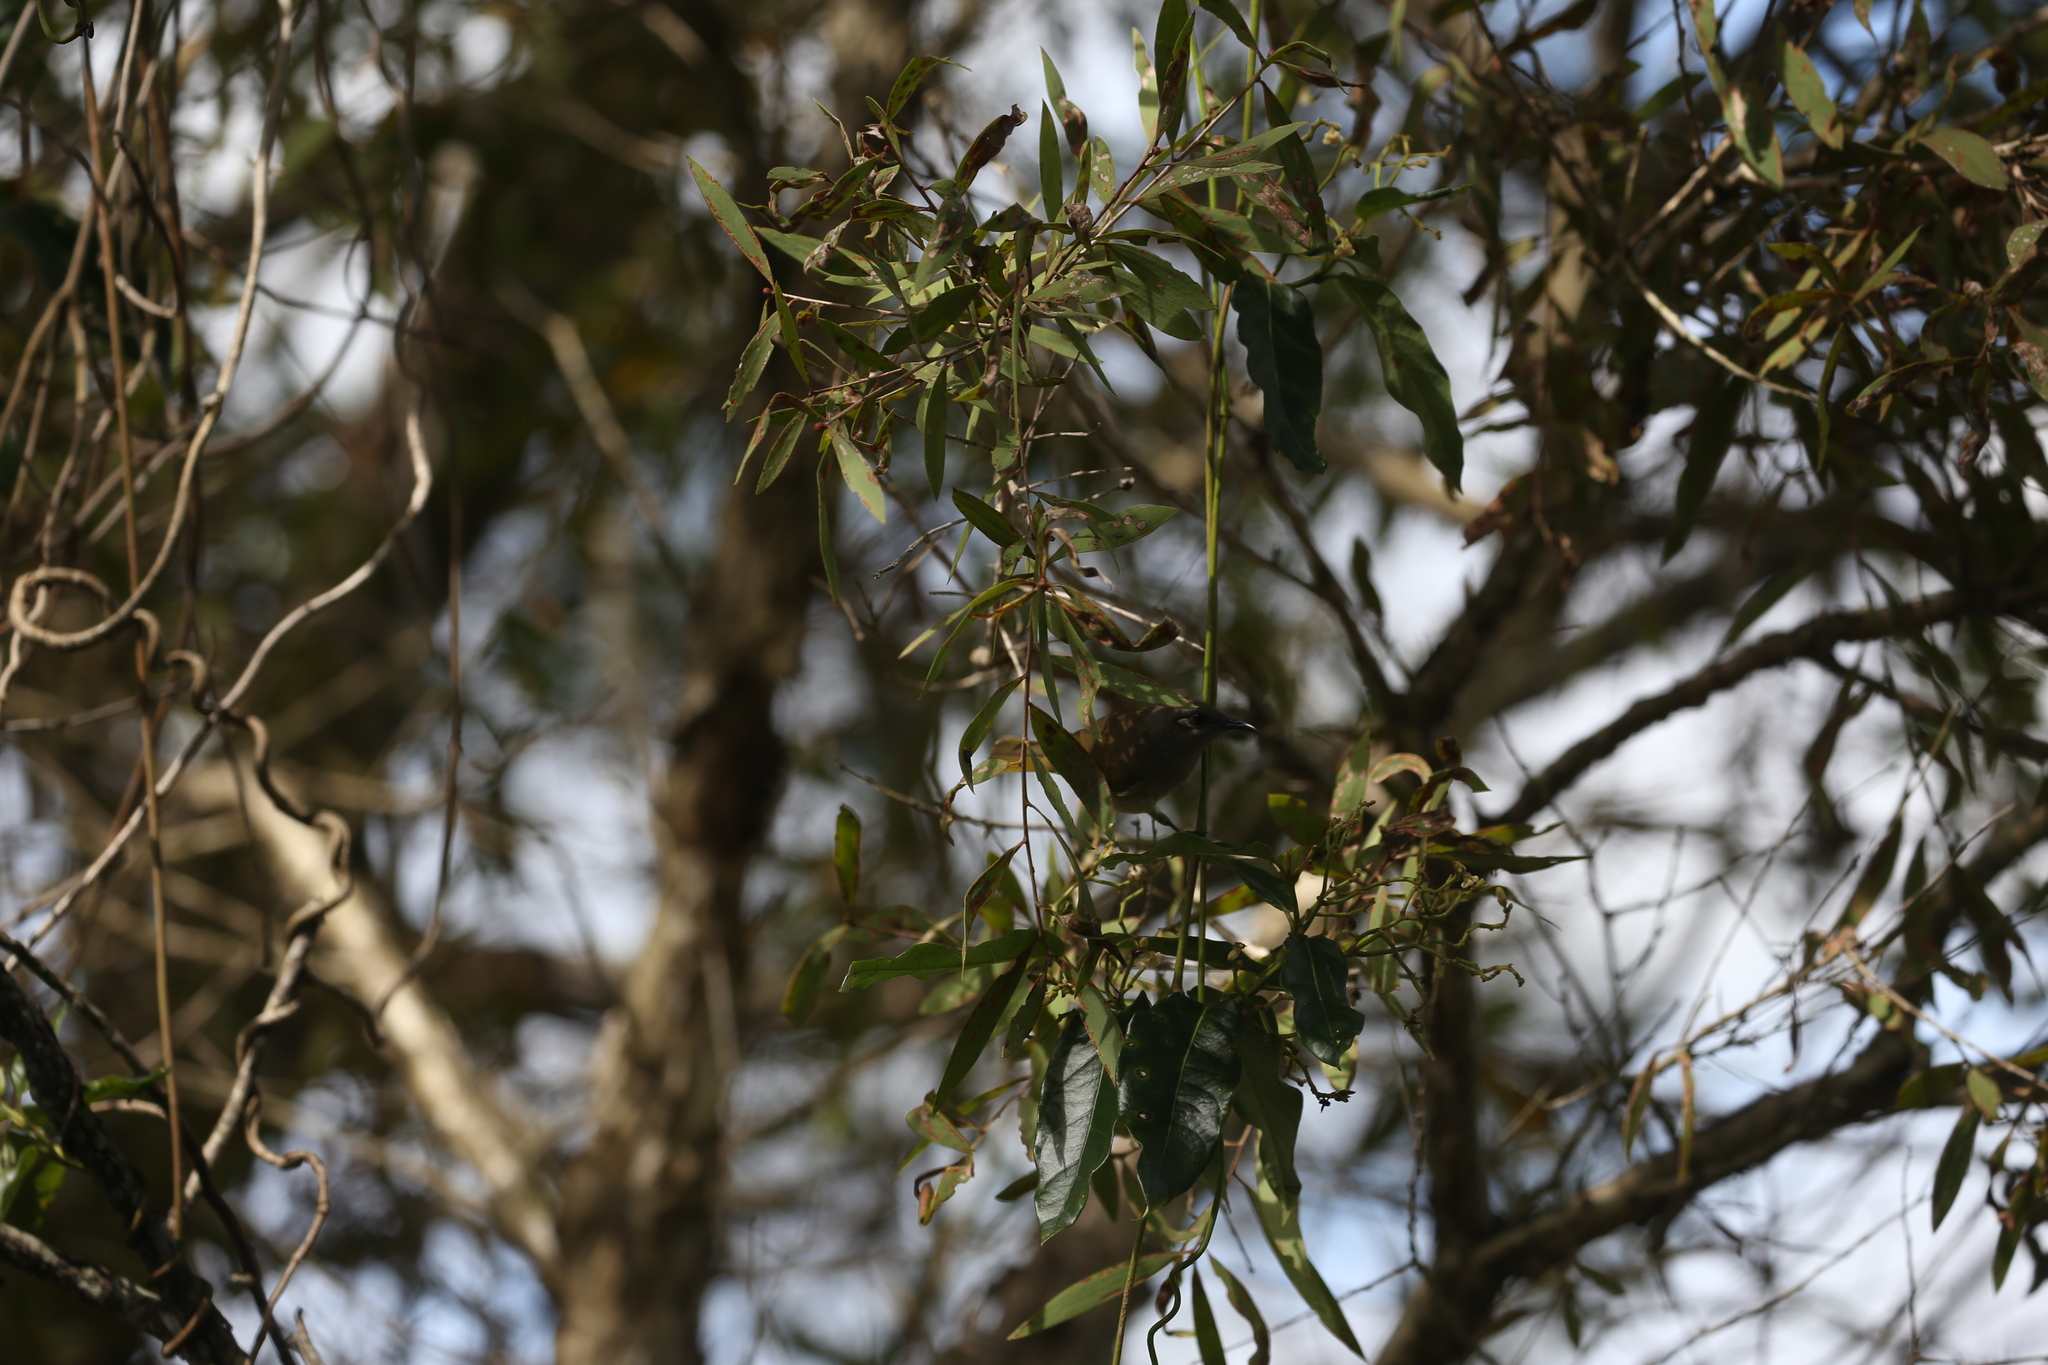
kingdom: Animalia
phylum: Chordata
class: Aves
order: Passeriformes
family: Meliphagidae
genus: Lichmera
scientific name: Lichmera indistincta
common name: Brown honeyeater
